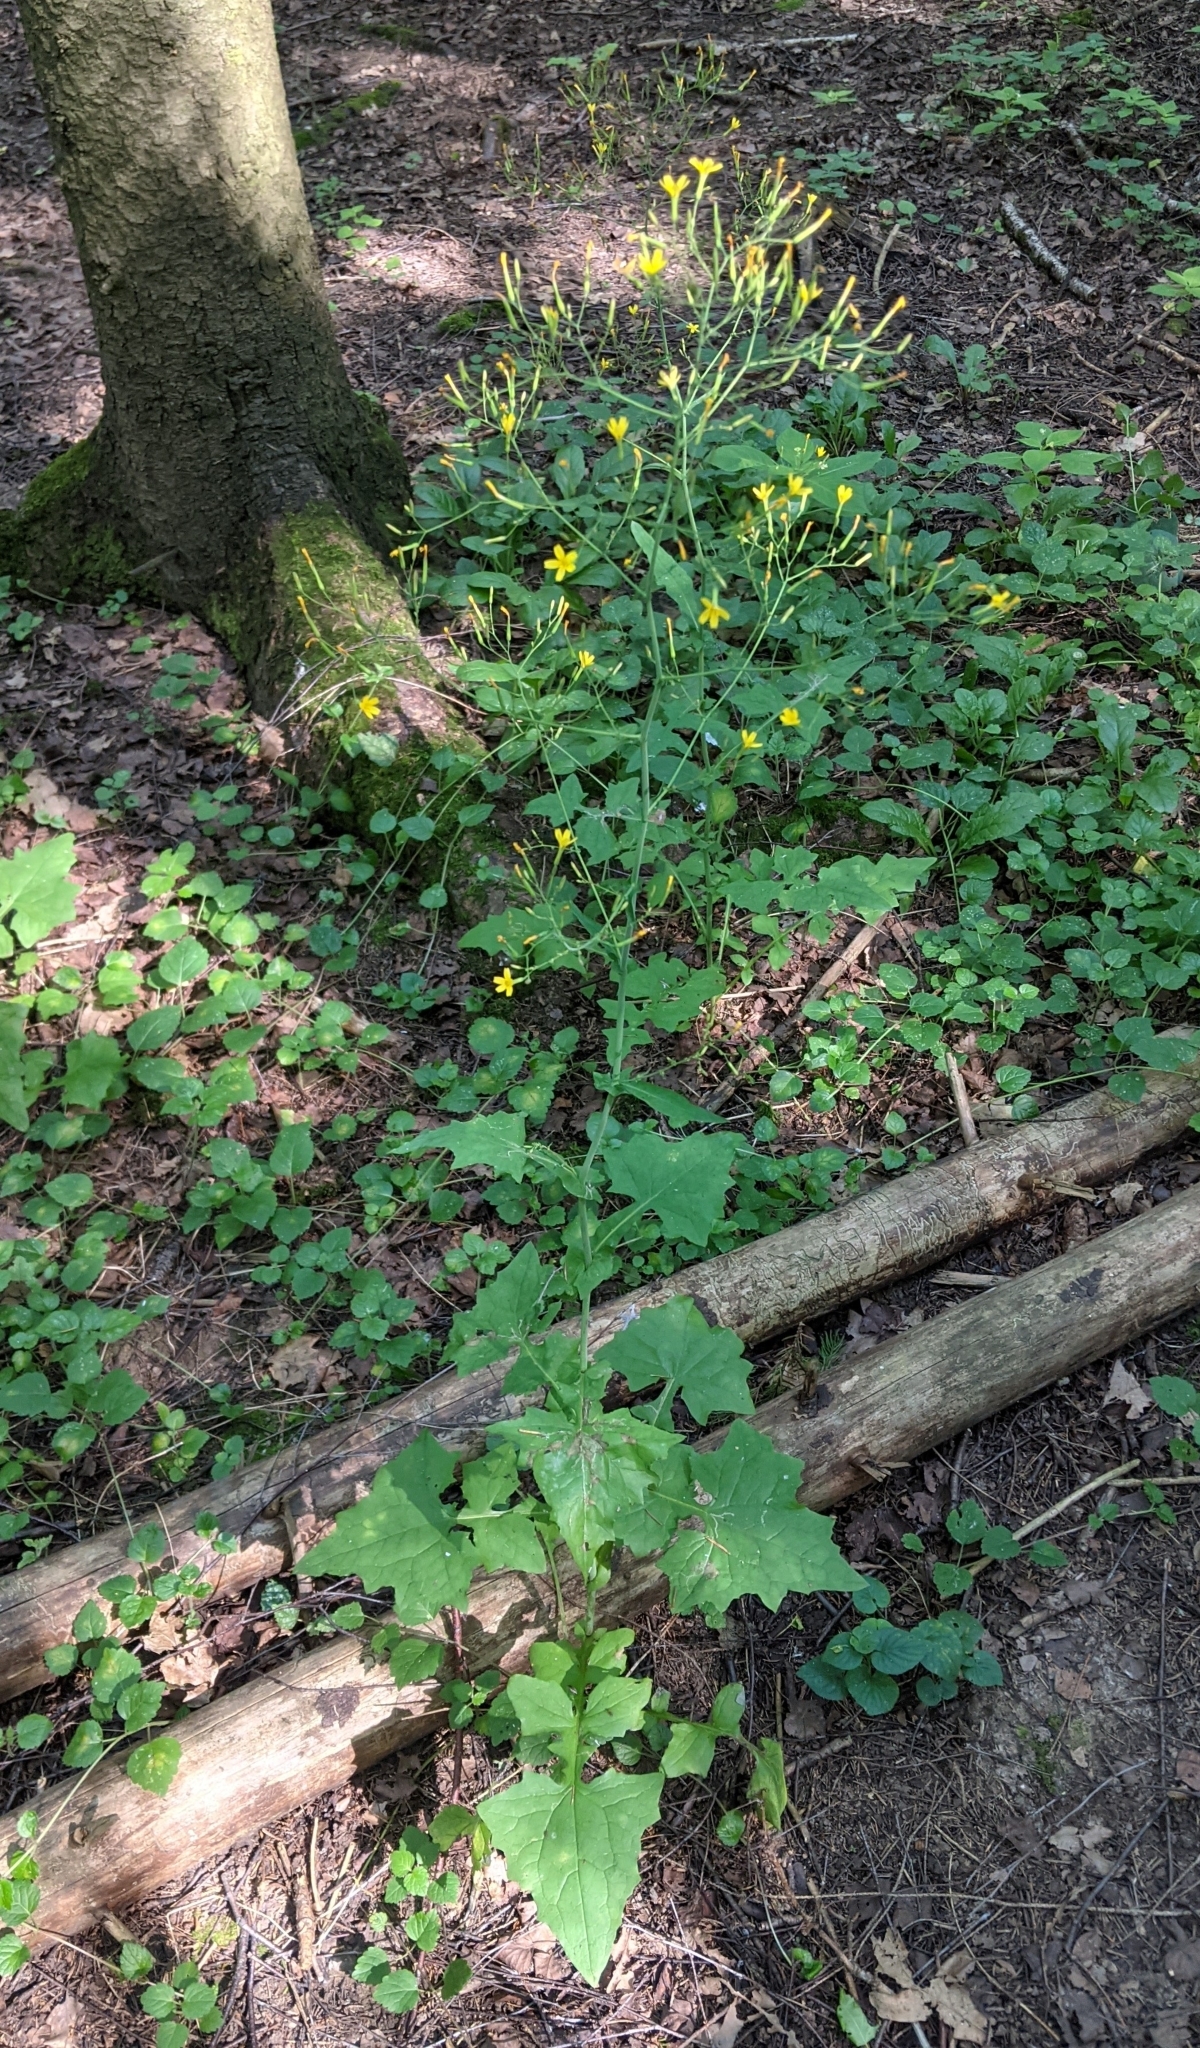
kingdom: Plantae
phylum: Tracheophyta
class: Magnoliopsida
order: Asterales
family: Asteraceae
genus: Mycelis
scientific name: Mycelis muralis
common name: Wall lettuce
